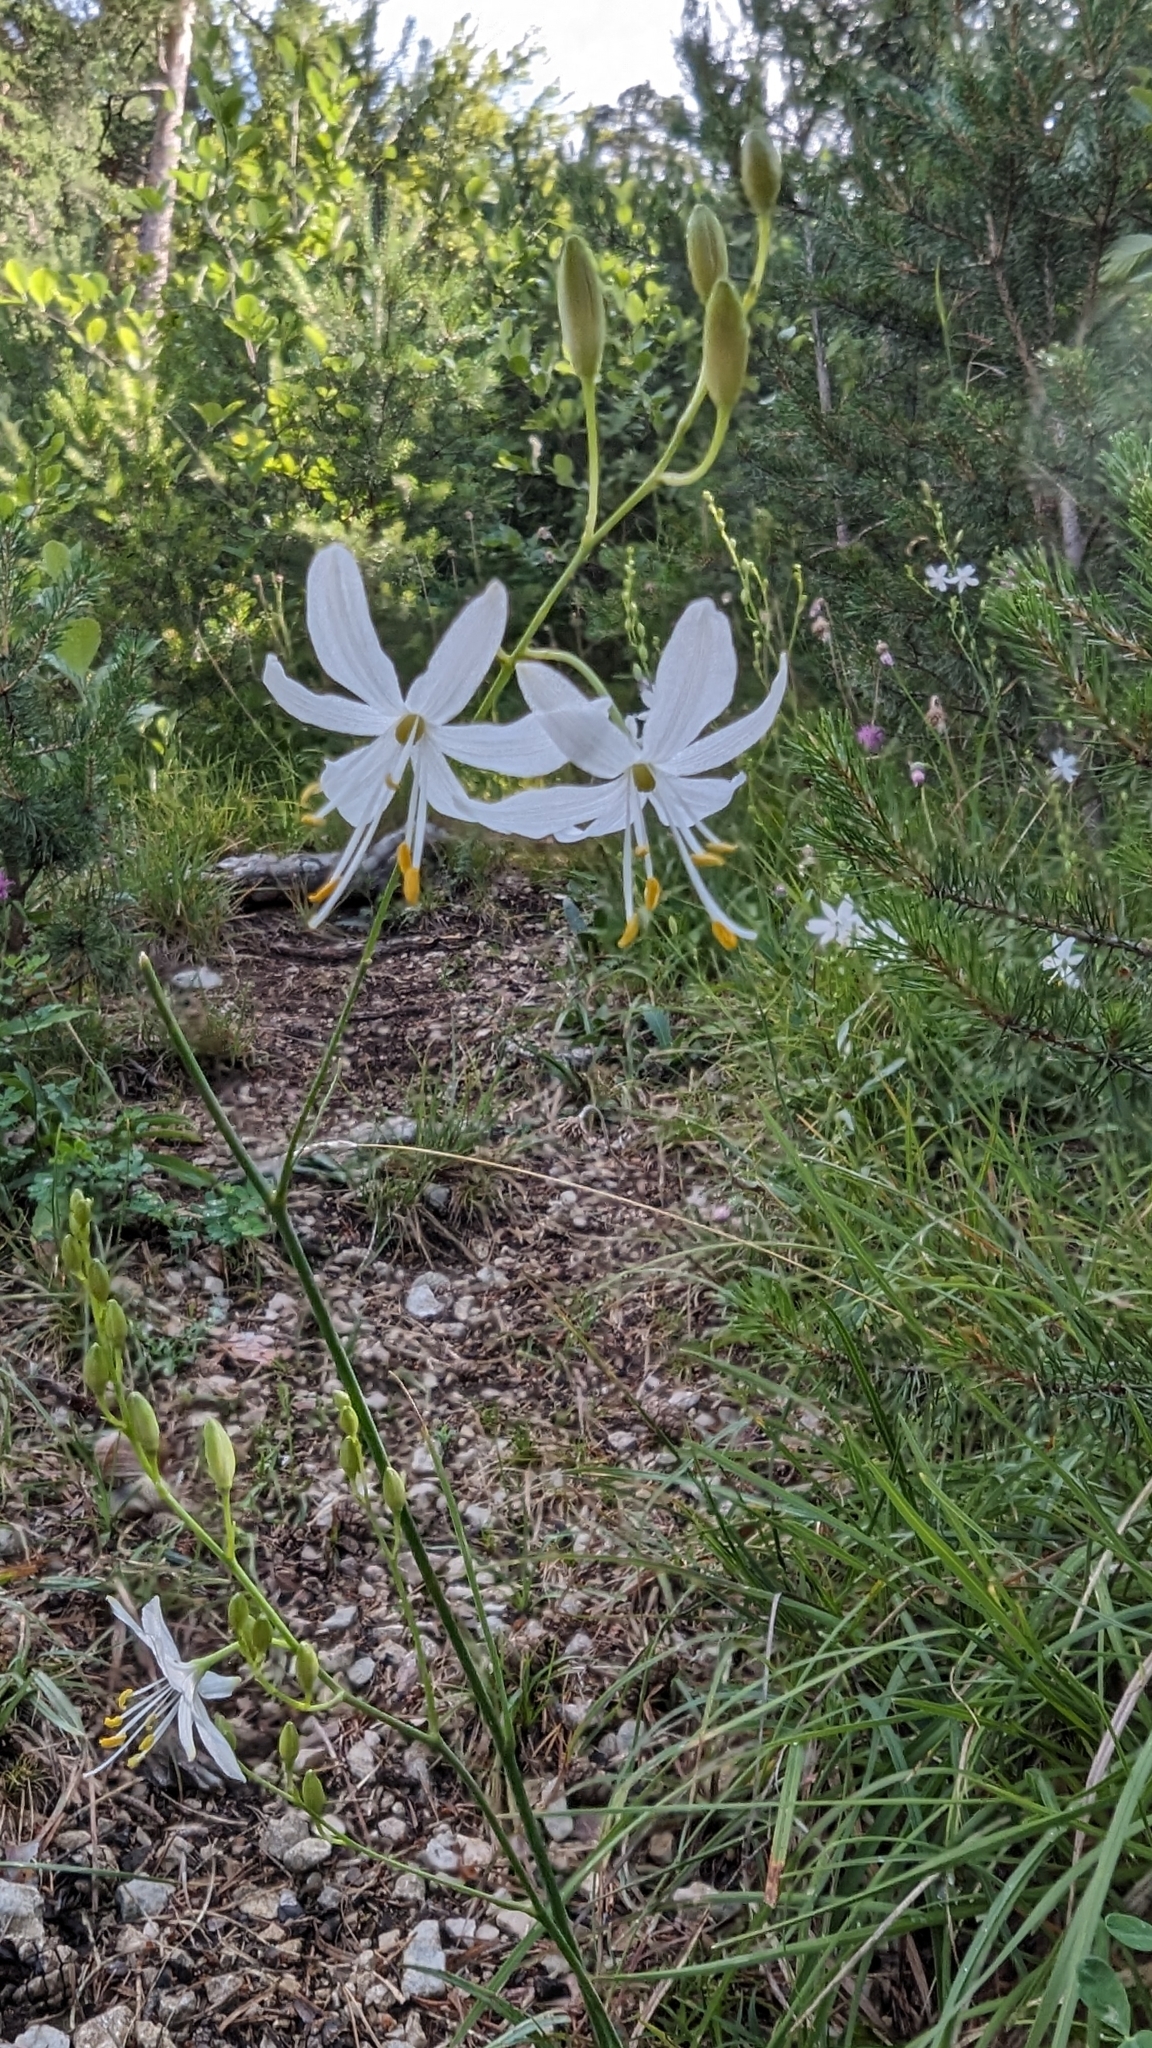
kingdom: Plantae
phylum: Tracheophyta
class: Liliopsida
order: Asparagales
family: Asparagaceae
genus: Anthericum
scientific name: Anthericum ramosum
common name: Branched st. bernard's-lily
